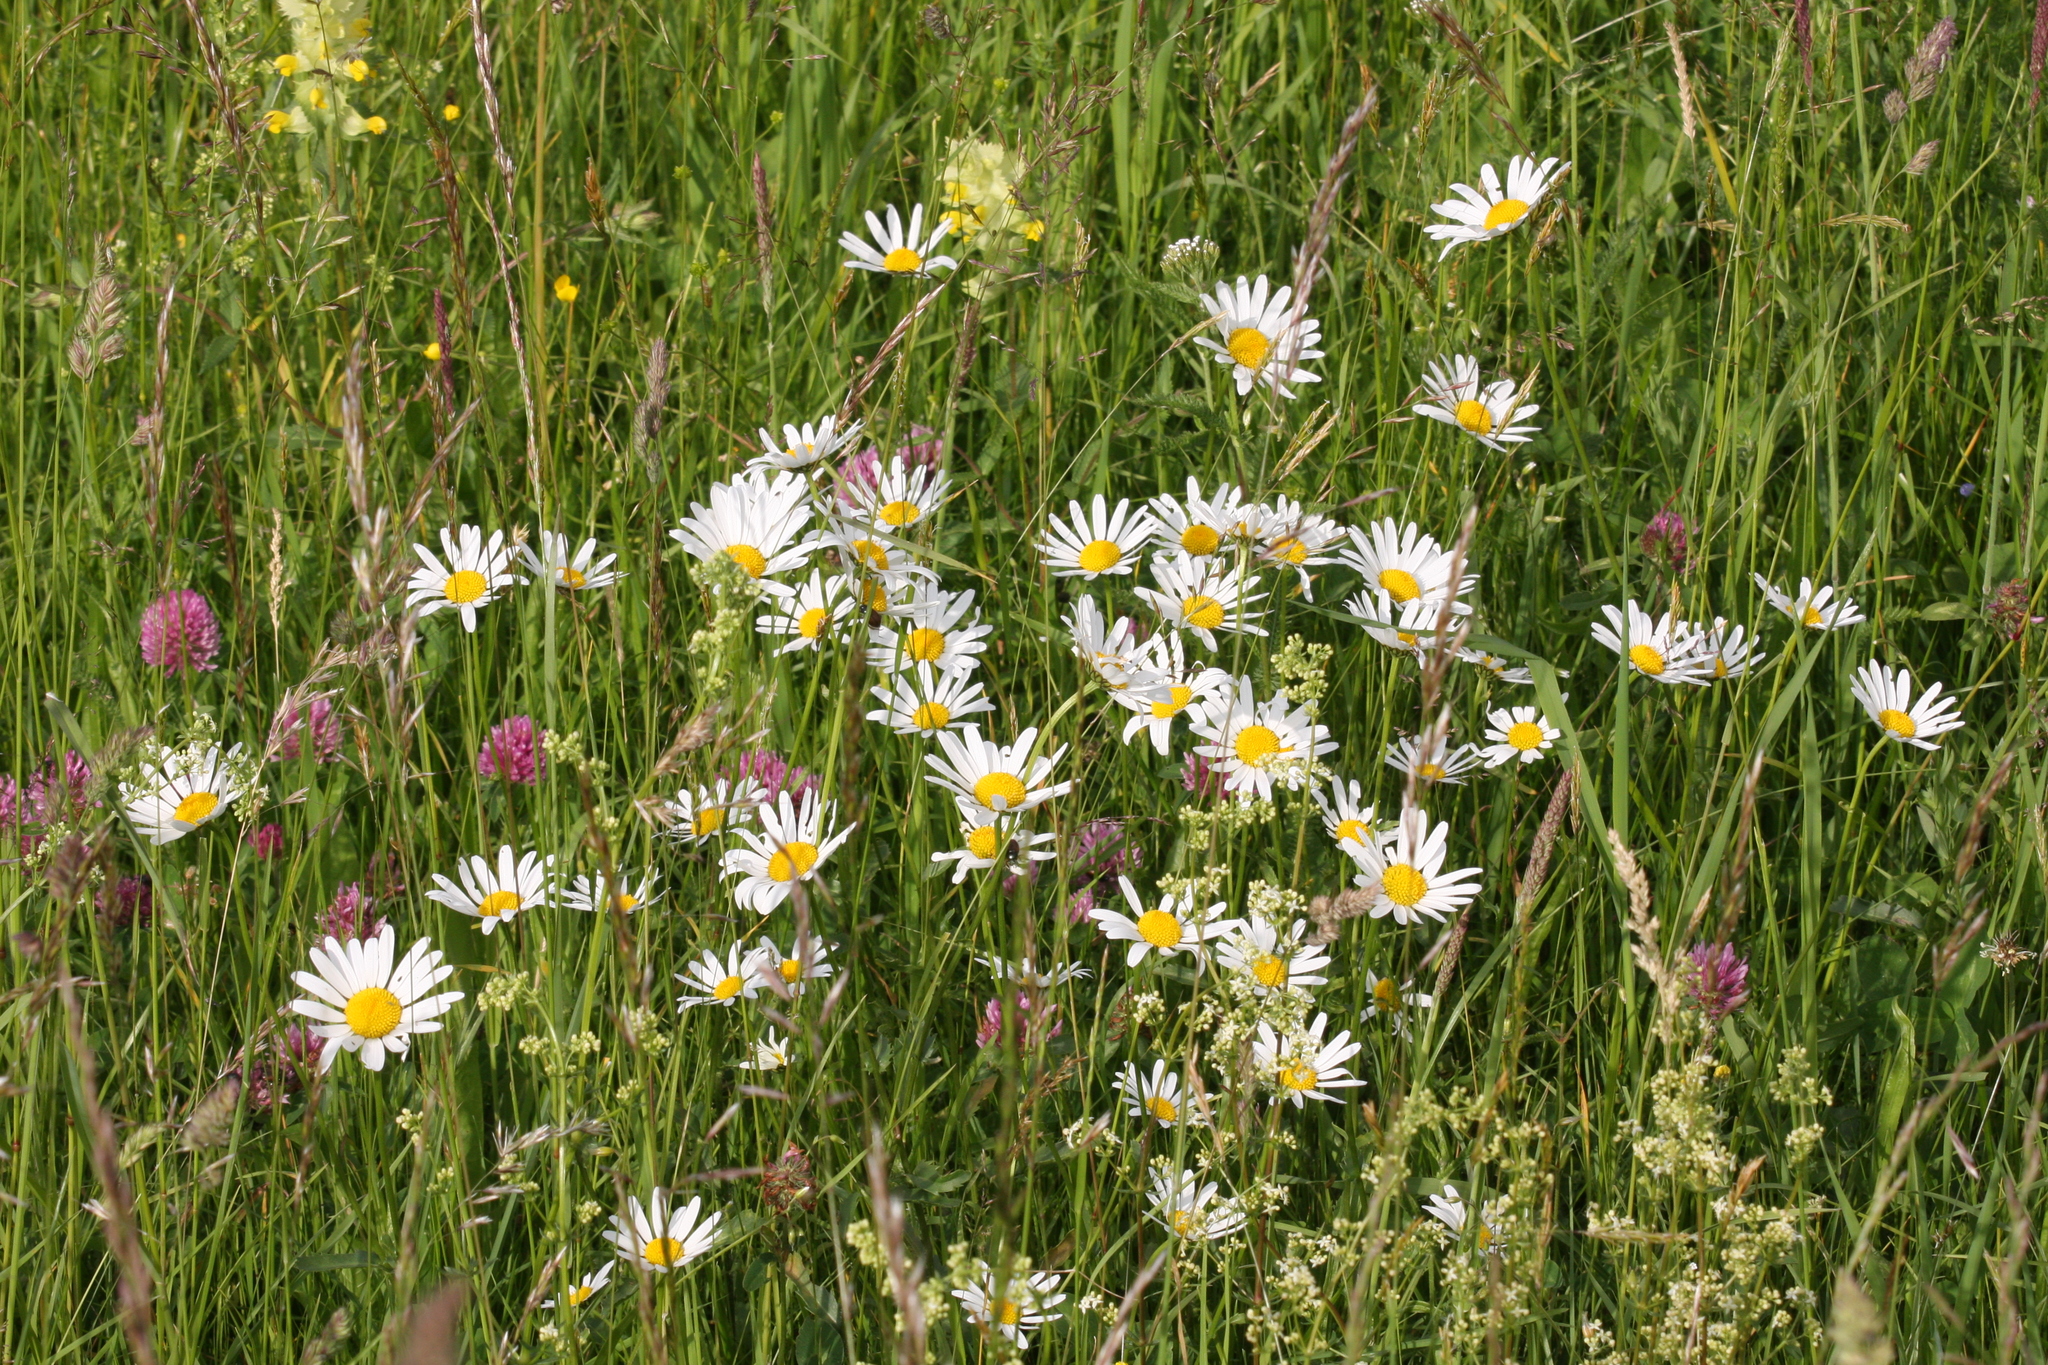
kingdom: Plantae
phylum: Tracheophyta
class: Magnoliopsida
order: Asterales
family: Asteraceae
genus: Leucanthemum
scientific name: Leucanthemum vulgare
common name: Oxeye daisy
